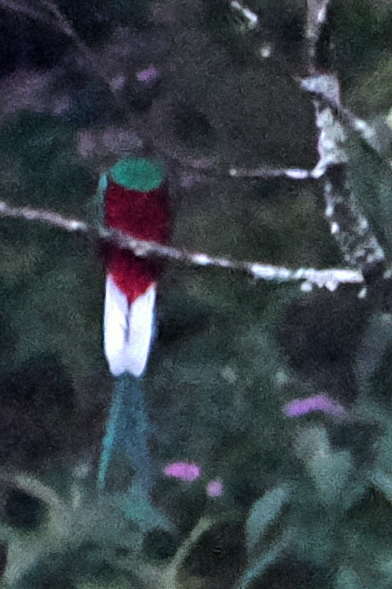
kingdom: Animalia
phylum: Chordata
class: Aves
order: Trogoniformes
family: Trogonidae
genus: Pharomachrus
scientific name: Pharomachrus mocinno
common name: Resplendent quetzal
